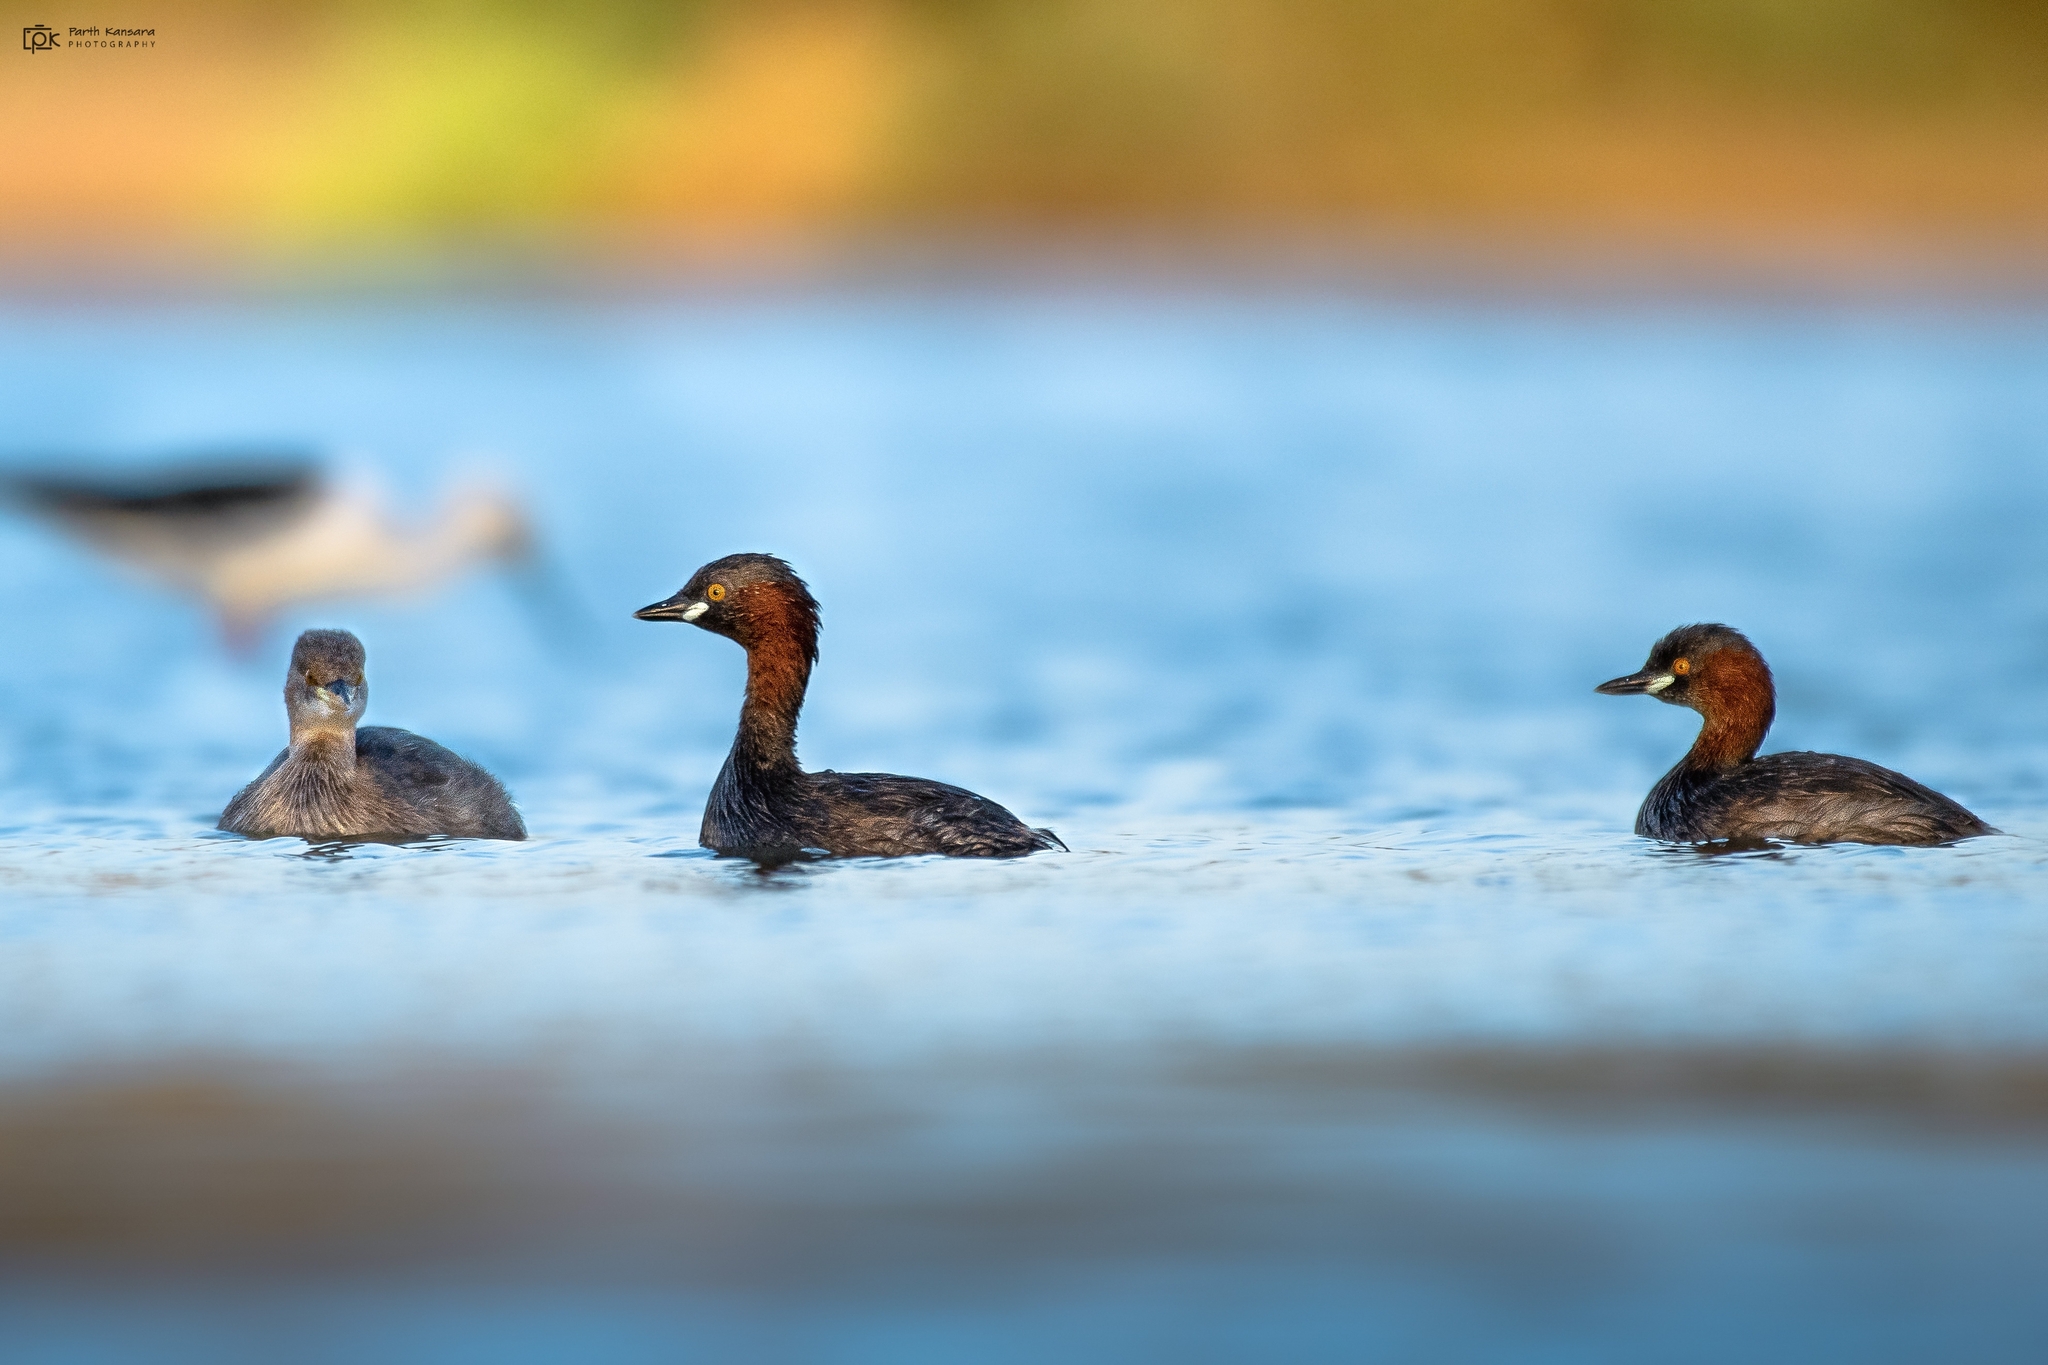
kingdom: Animalia
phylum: Chordata
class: Aves
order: Podicipediformes
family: Podicipedidae
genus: Tachybaptus
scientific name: Tachybaptus ruficollis
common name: Little grebe
